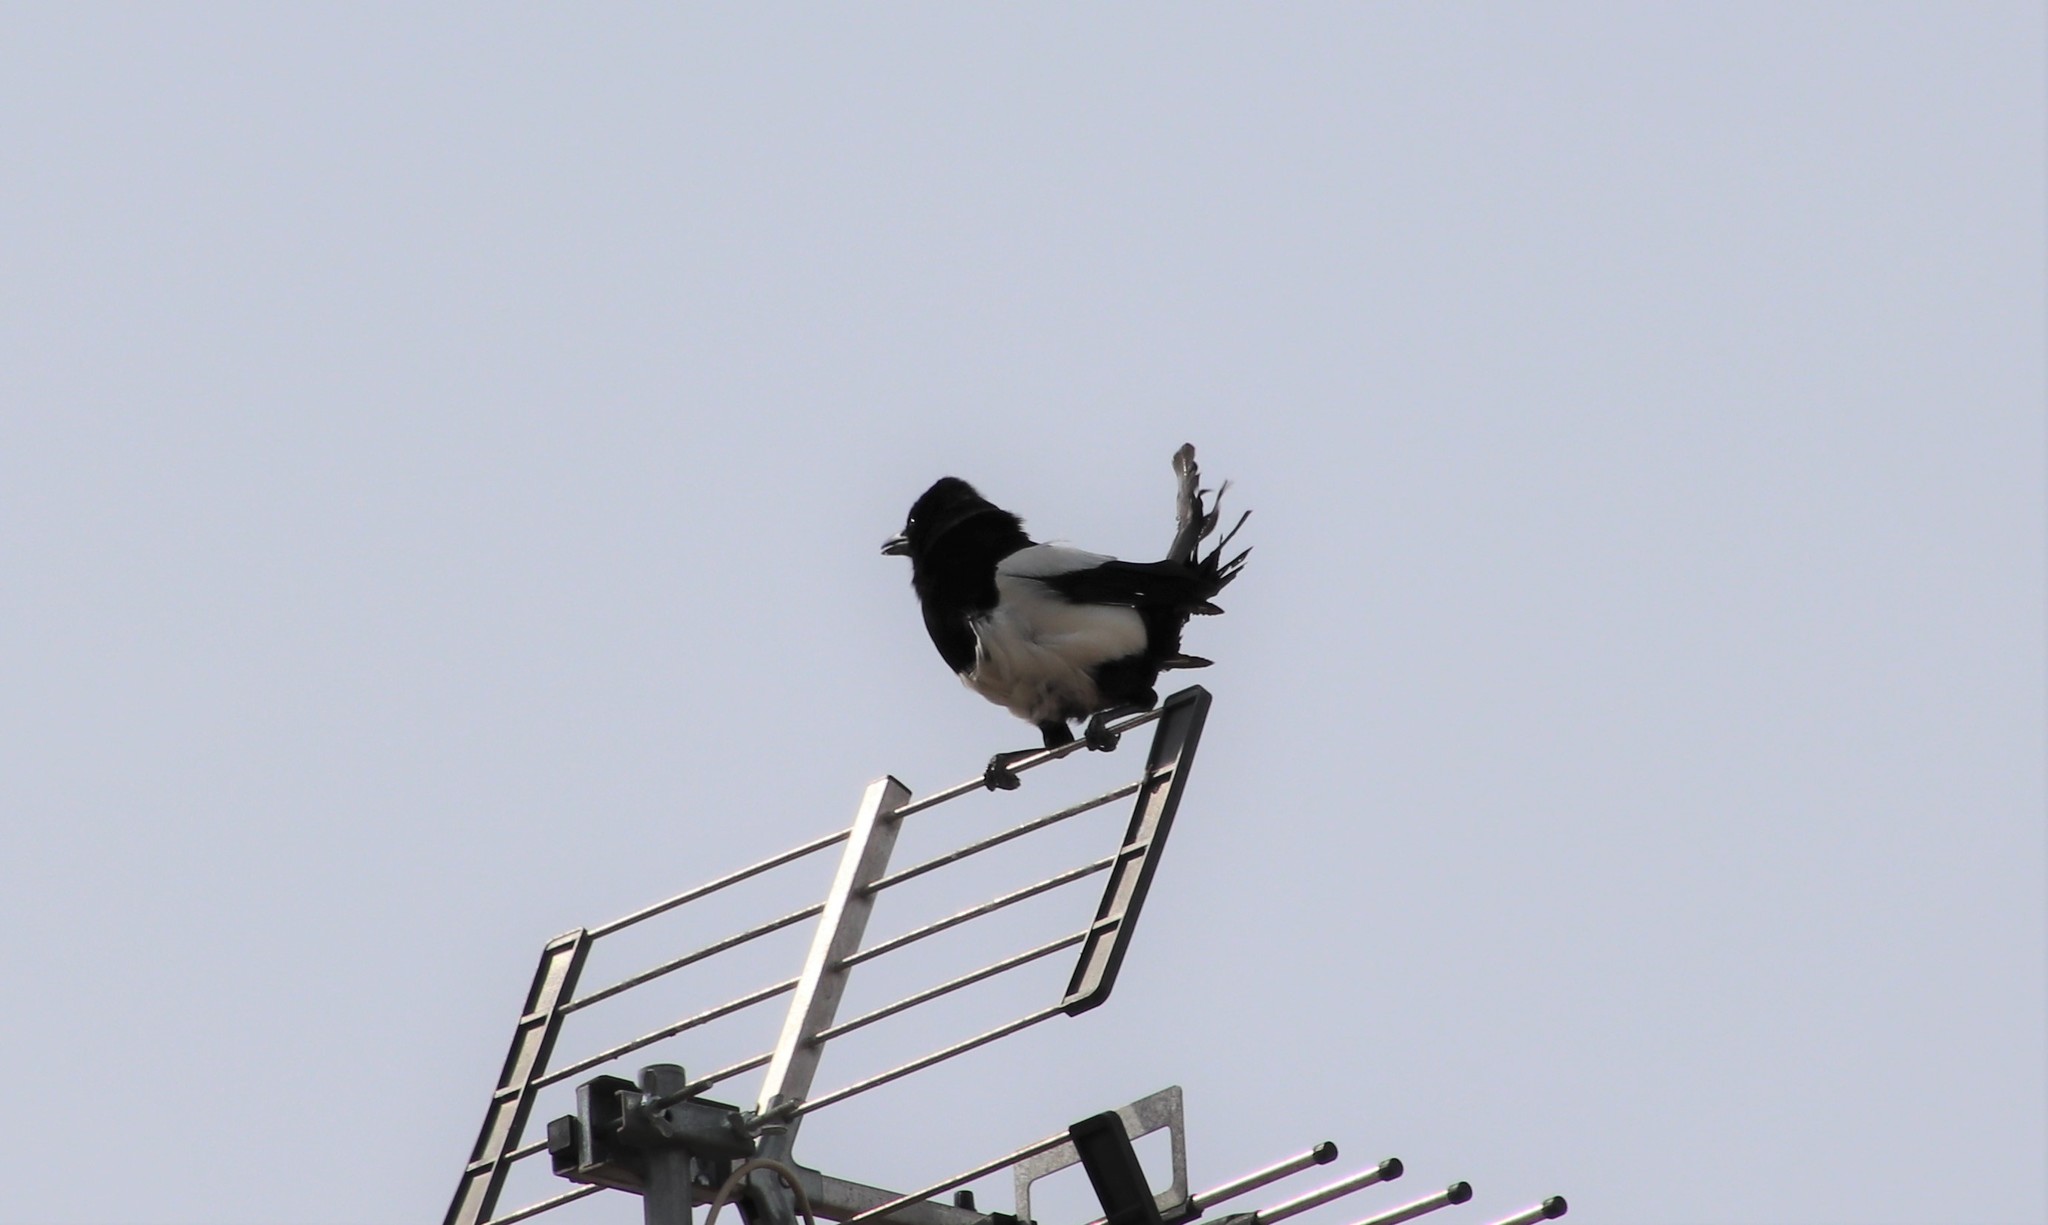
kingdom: Animalia
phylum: Chordata
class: Aves
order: Passeriformes
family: Corvidae
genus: Pica
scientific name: Pica pica
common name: Eurasian magpie
